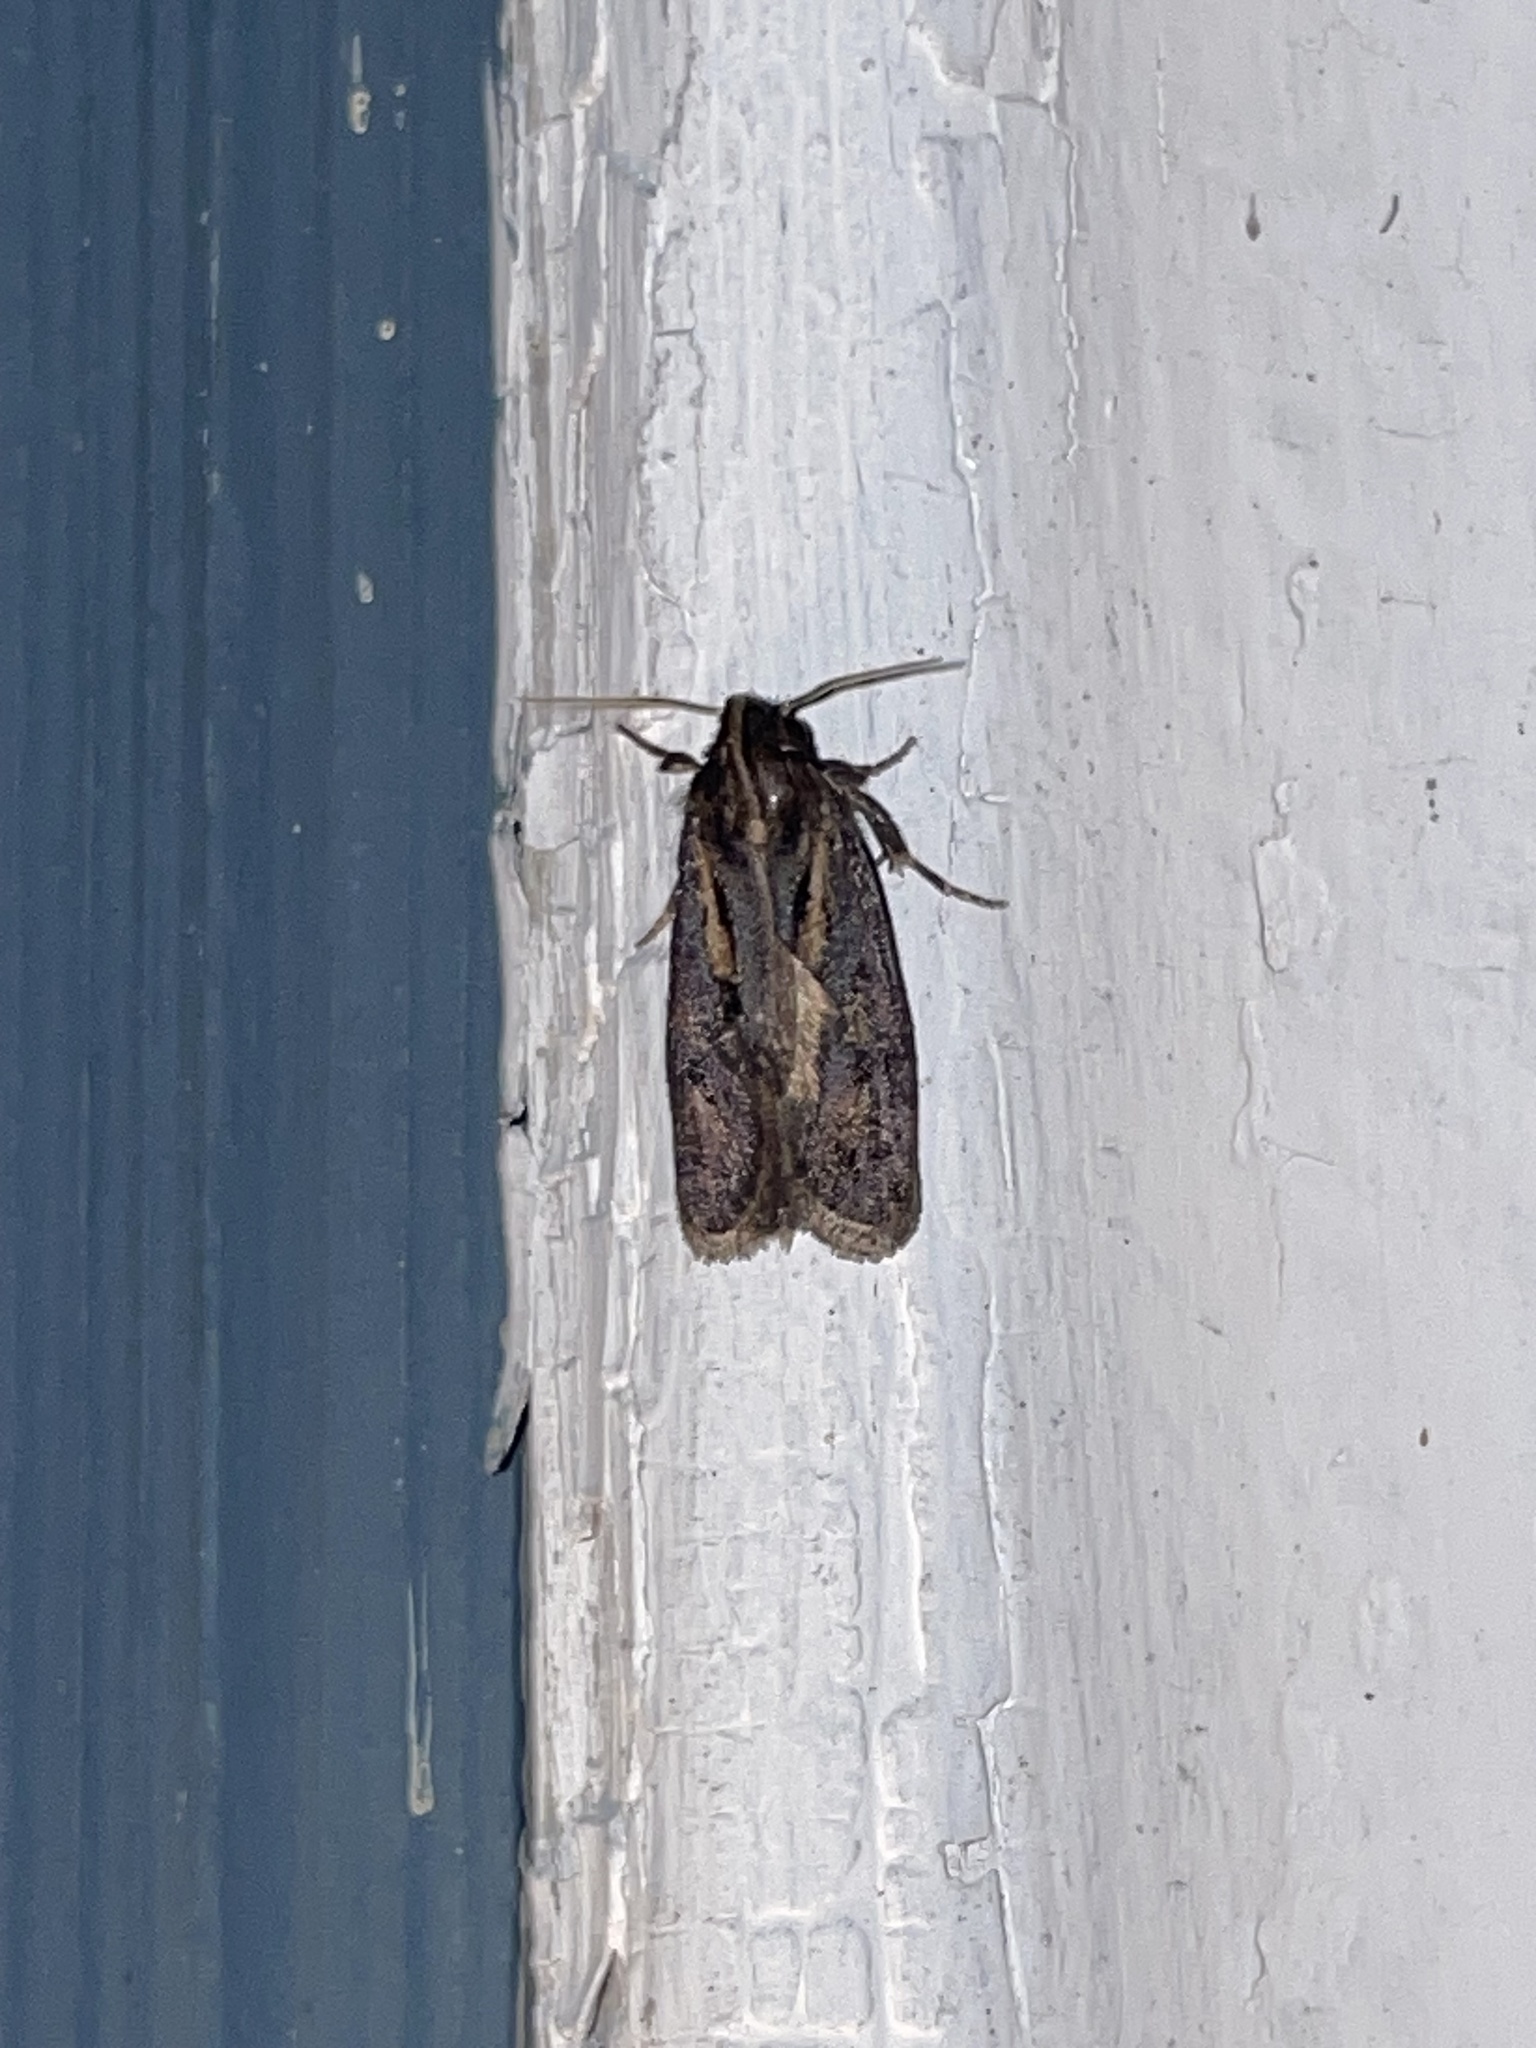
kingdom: Animalia
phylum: Arthropoda
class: Insecta
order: Lepidoptera
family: Tineidae
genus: Acrolophus
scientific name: Acrolophus popeanella
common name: Clemens' grass tubeworm moth
